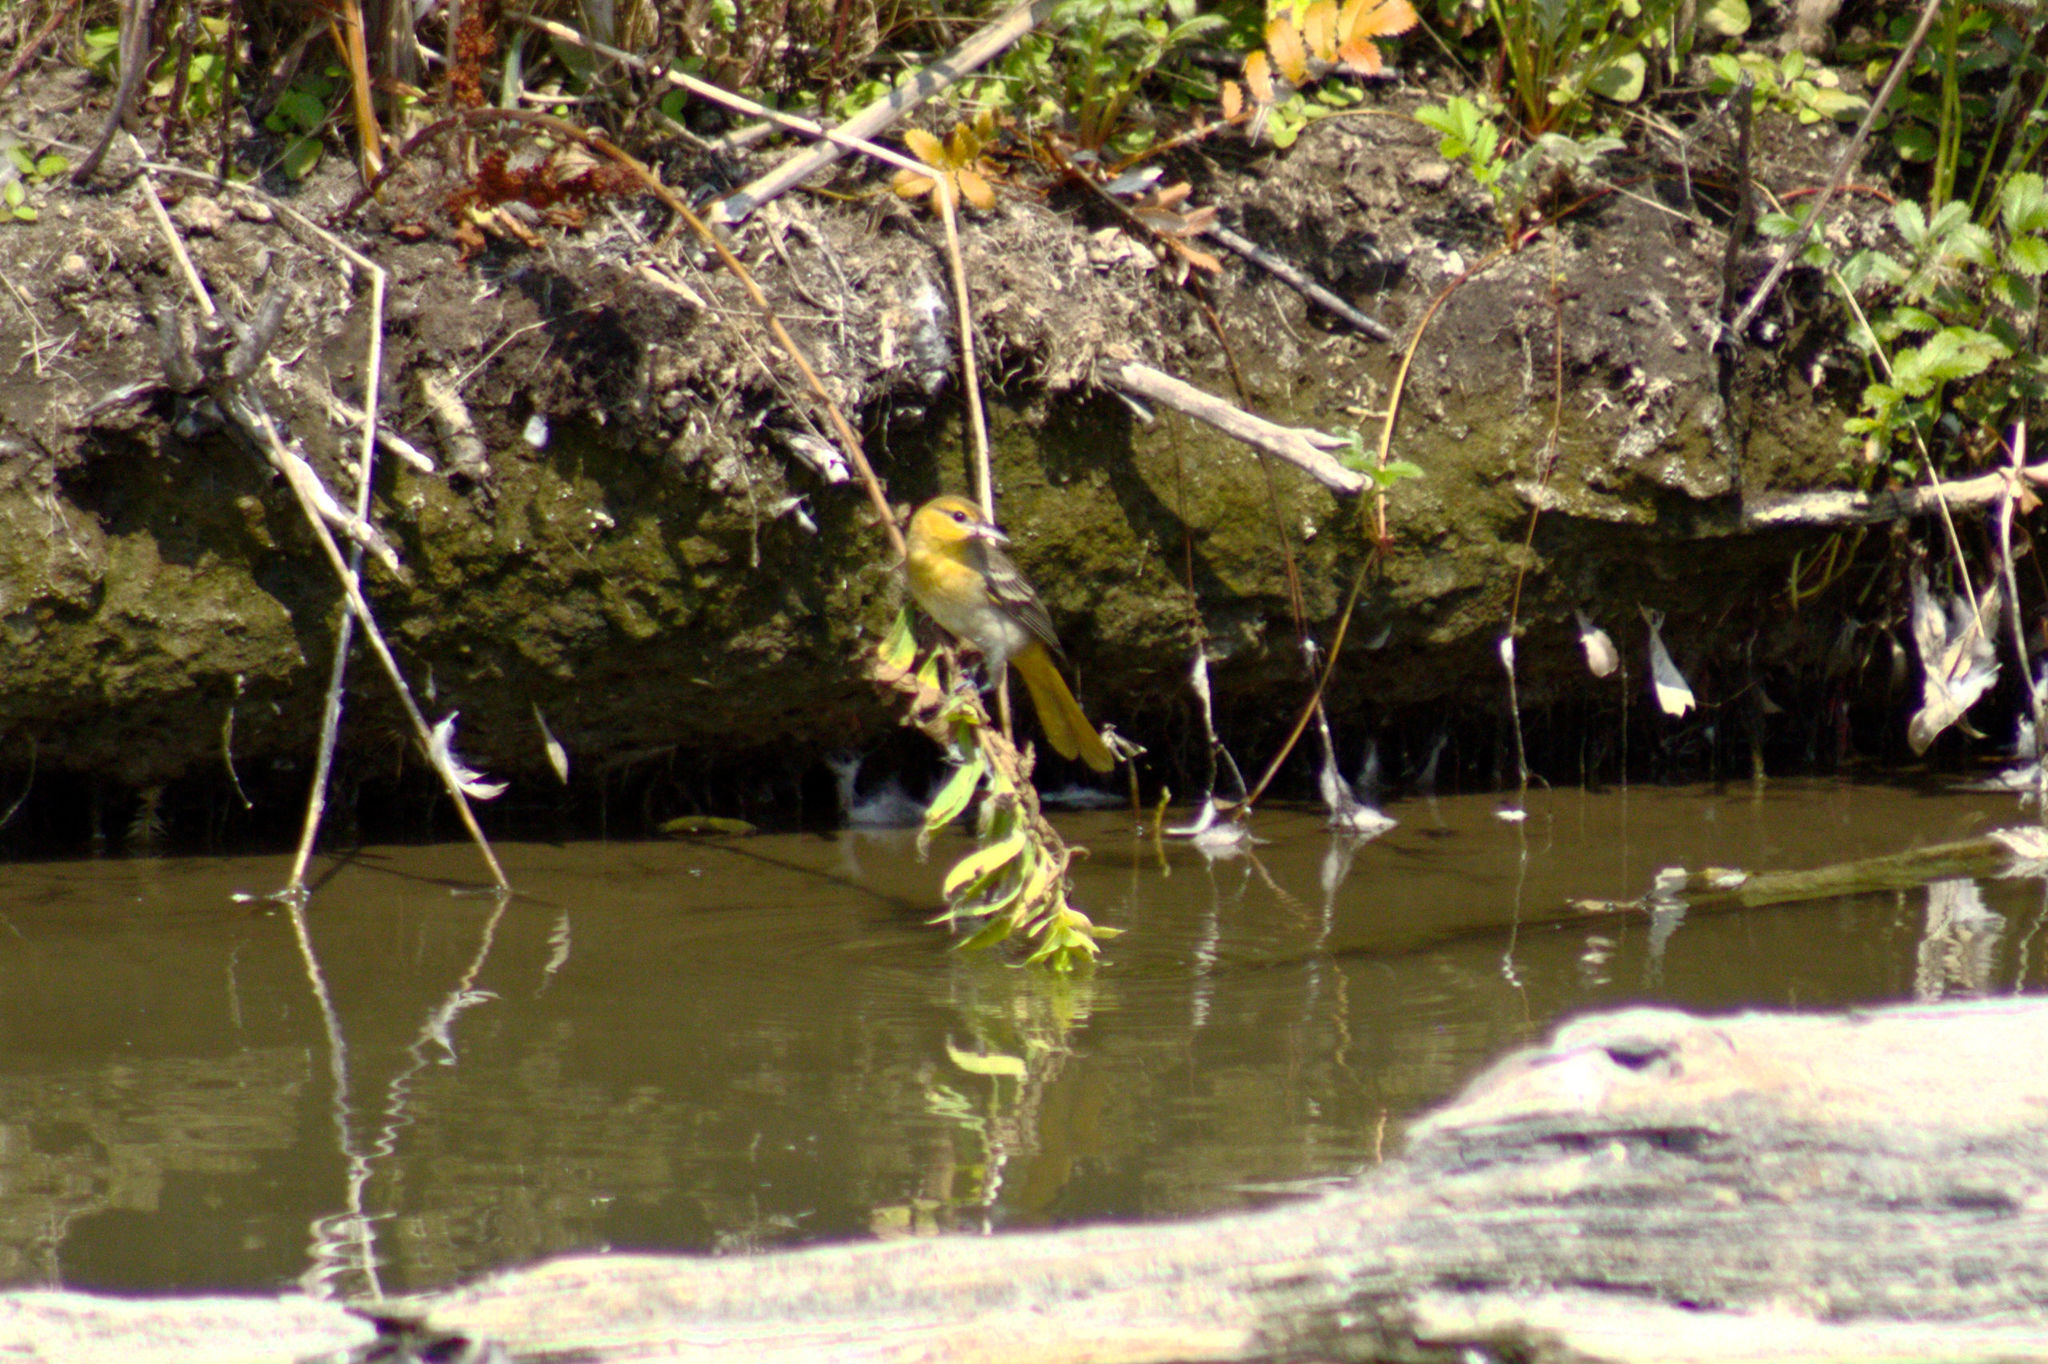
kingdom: Animalia
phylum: Chordata
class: Aves
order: Passeriformes
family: Icteridae
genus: Icterus
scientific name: Icterus bullockii
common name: Bullock's oriole
